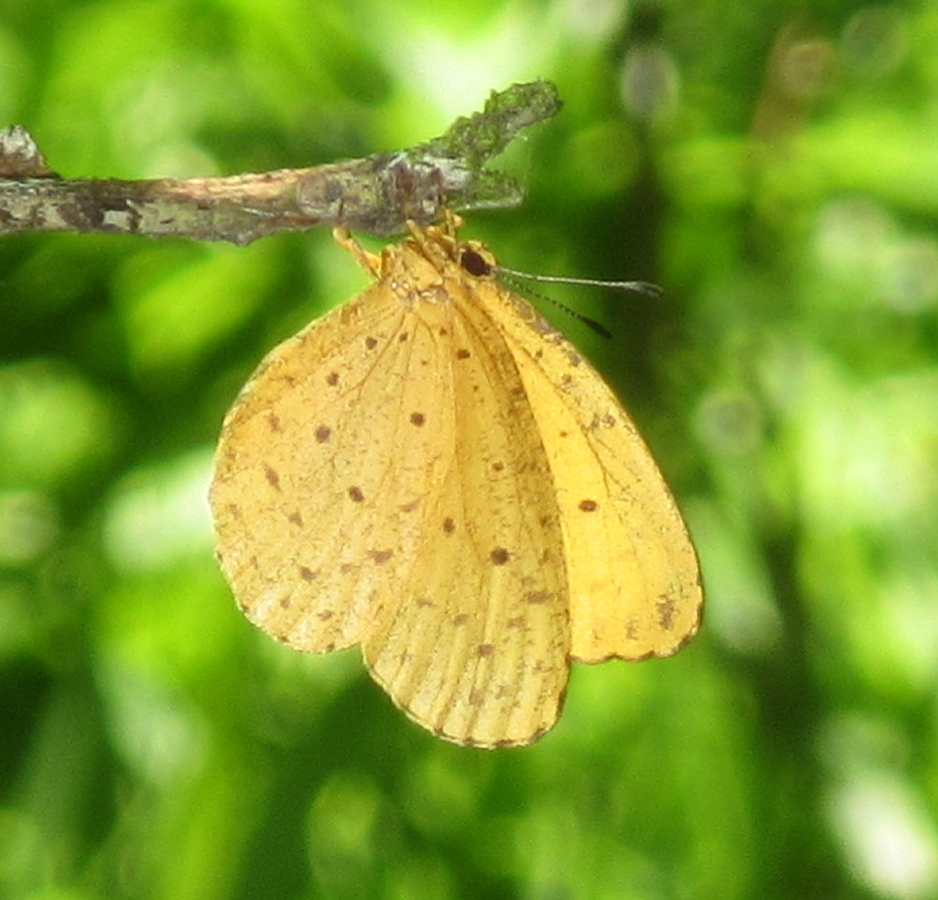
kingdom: Animalia
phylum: Arthropoda
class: Insecta
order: Lepidoptera
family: Lycaenidae
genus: Pentila
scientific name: Pentila tropicalis
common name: Spotted buff
